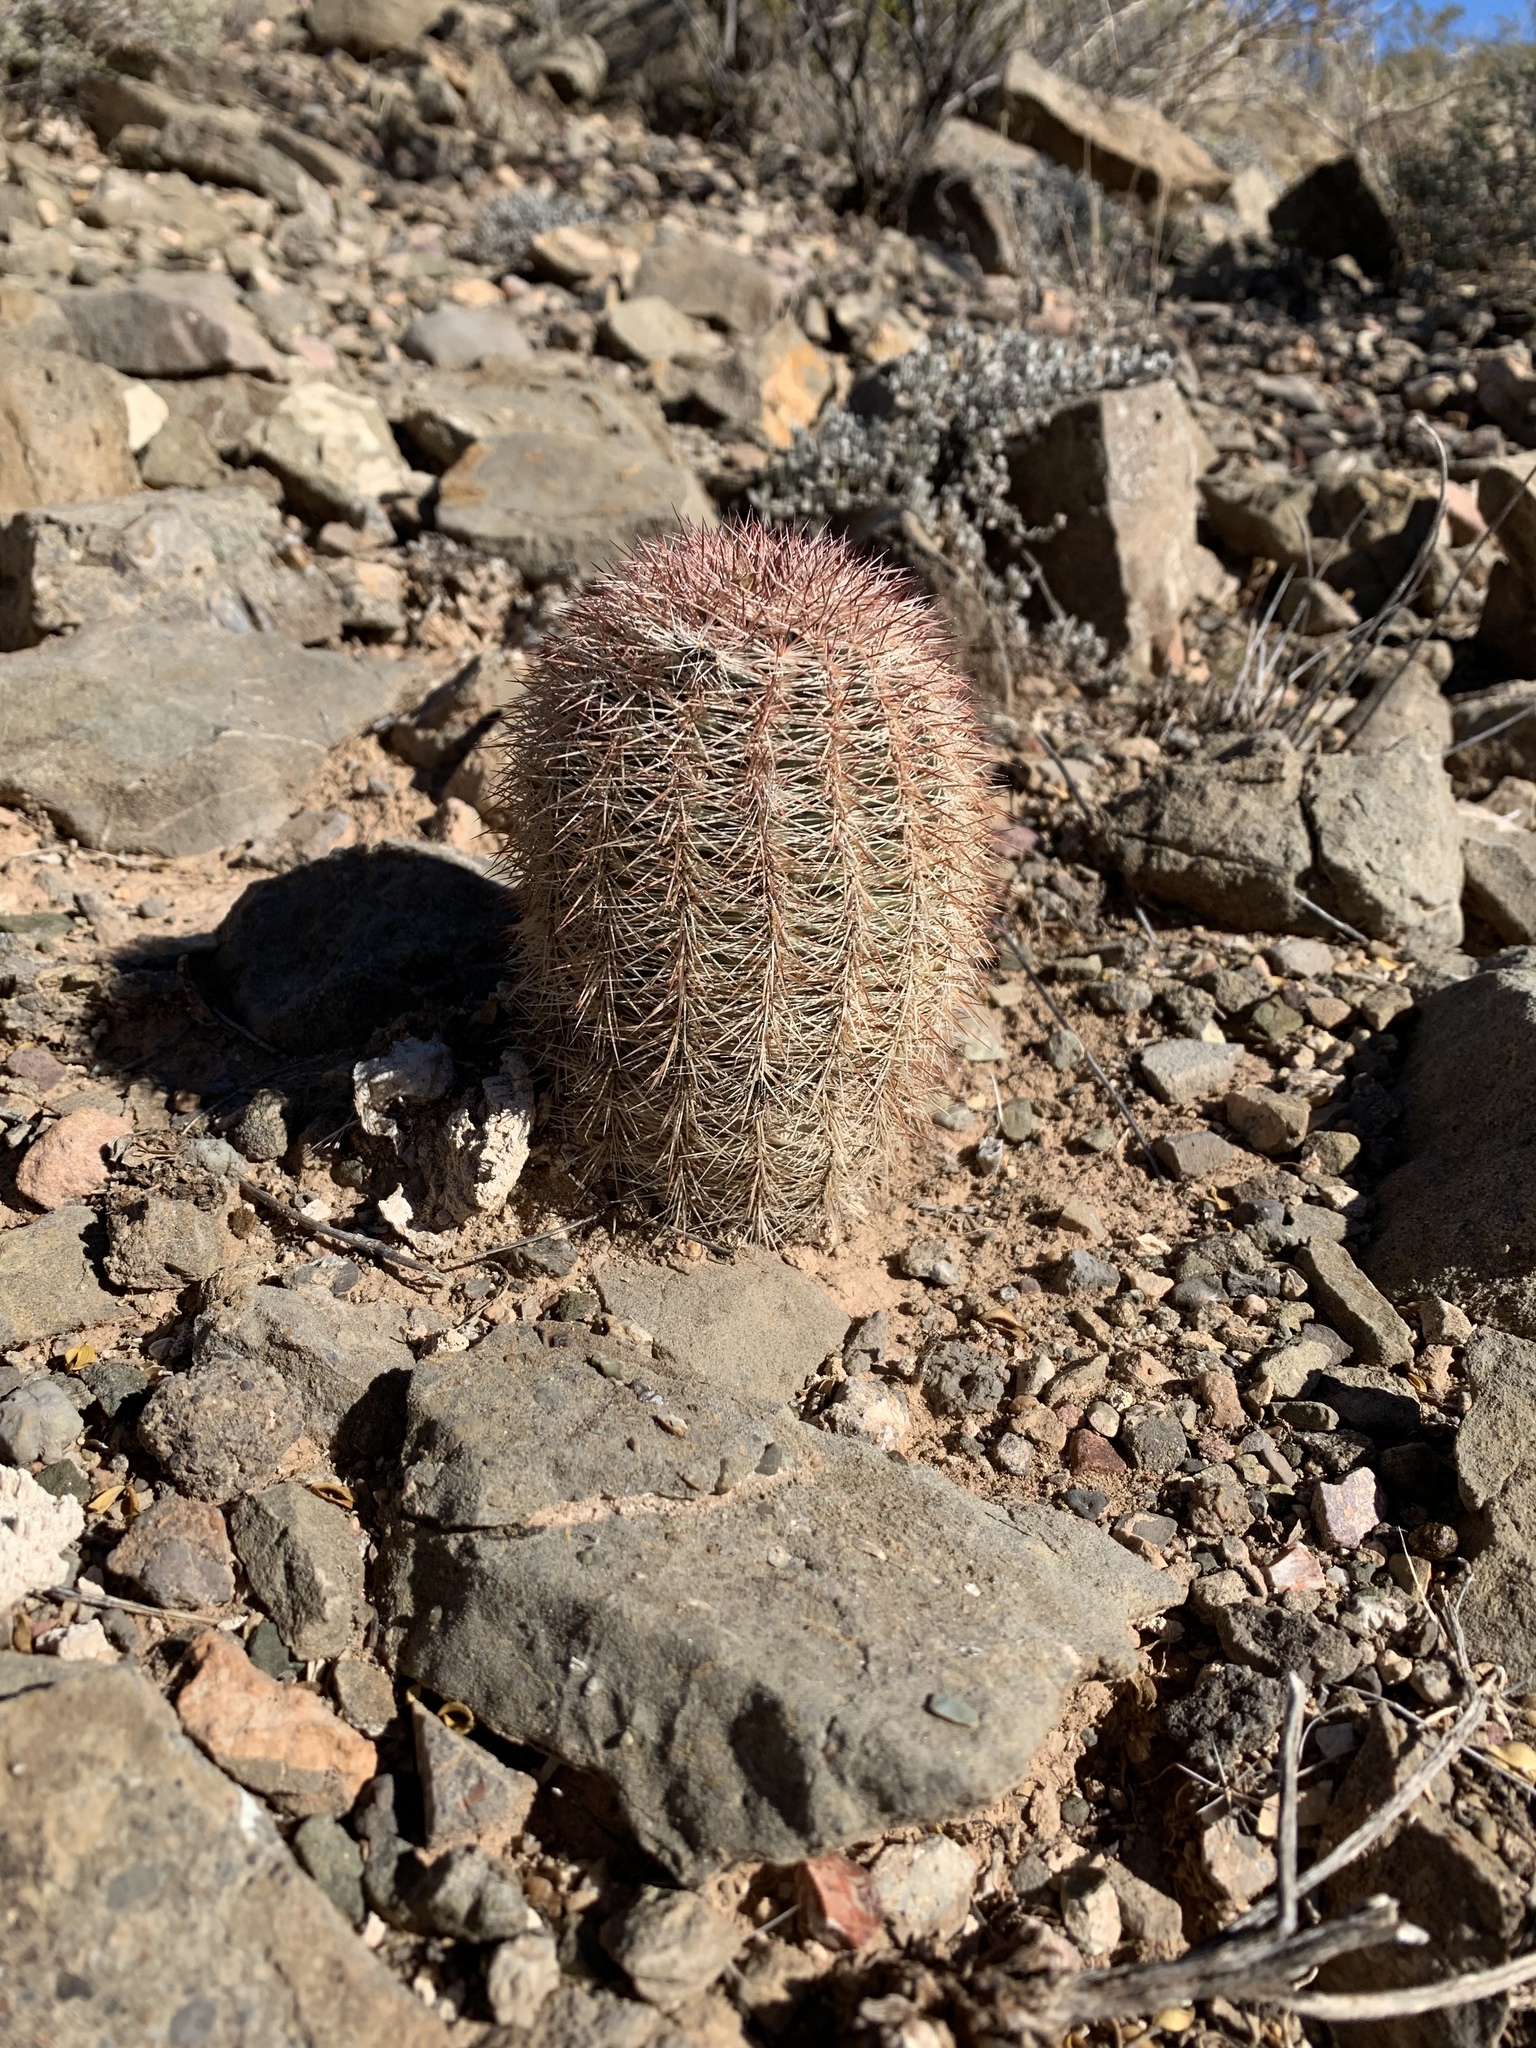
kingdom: Plantae
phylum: Tracheophyta
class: Magnoliopsida
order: Caryophyllales
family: Cactaceae
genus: Echinocereus
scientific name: Echinocereus dasyacanthus
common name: Spiny hedgehog cactus
